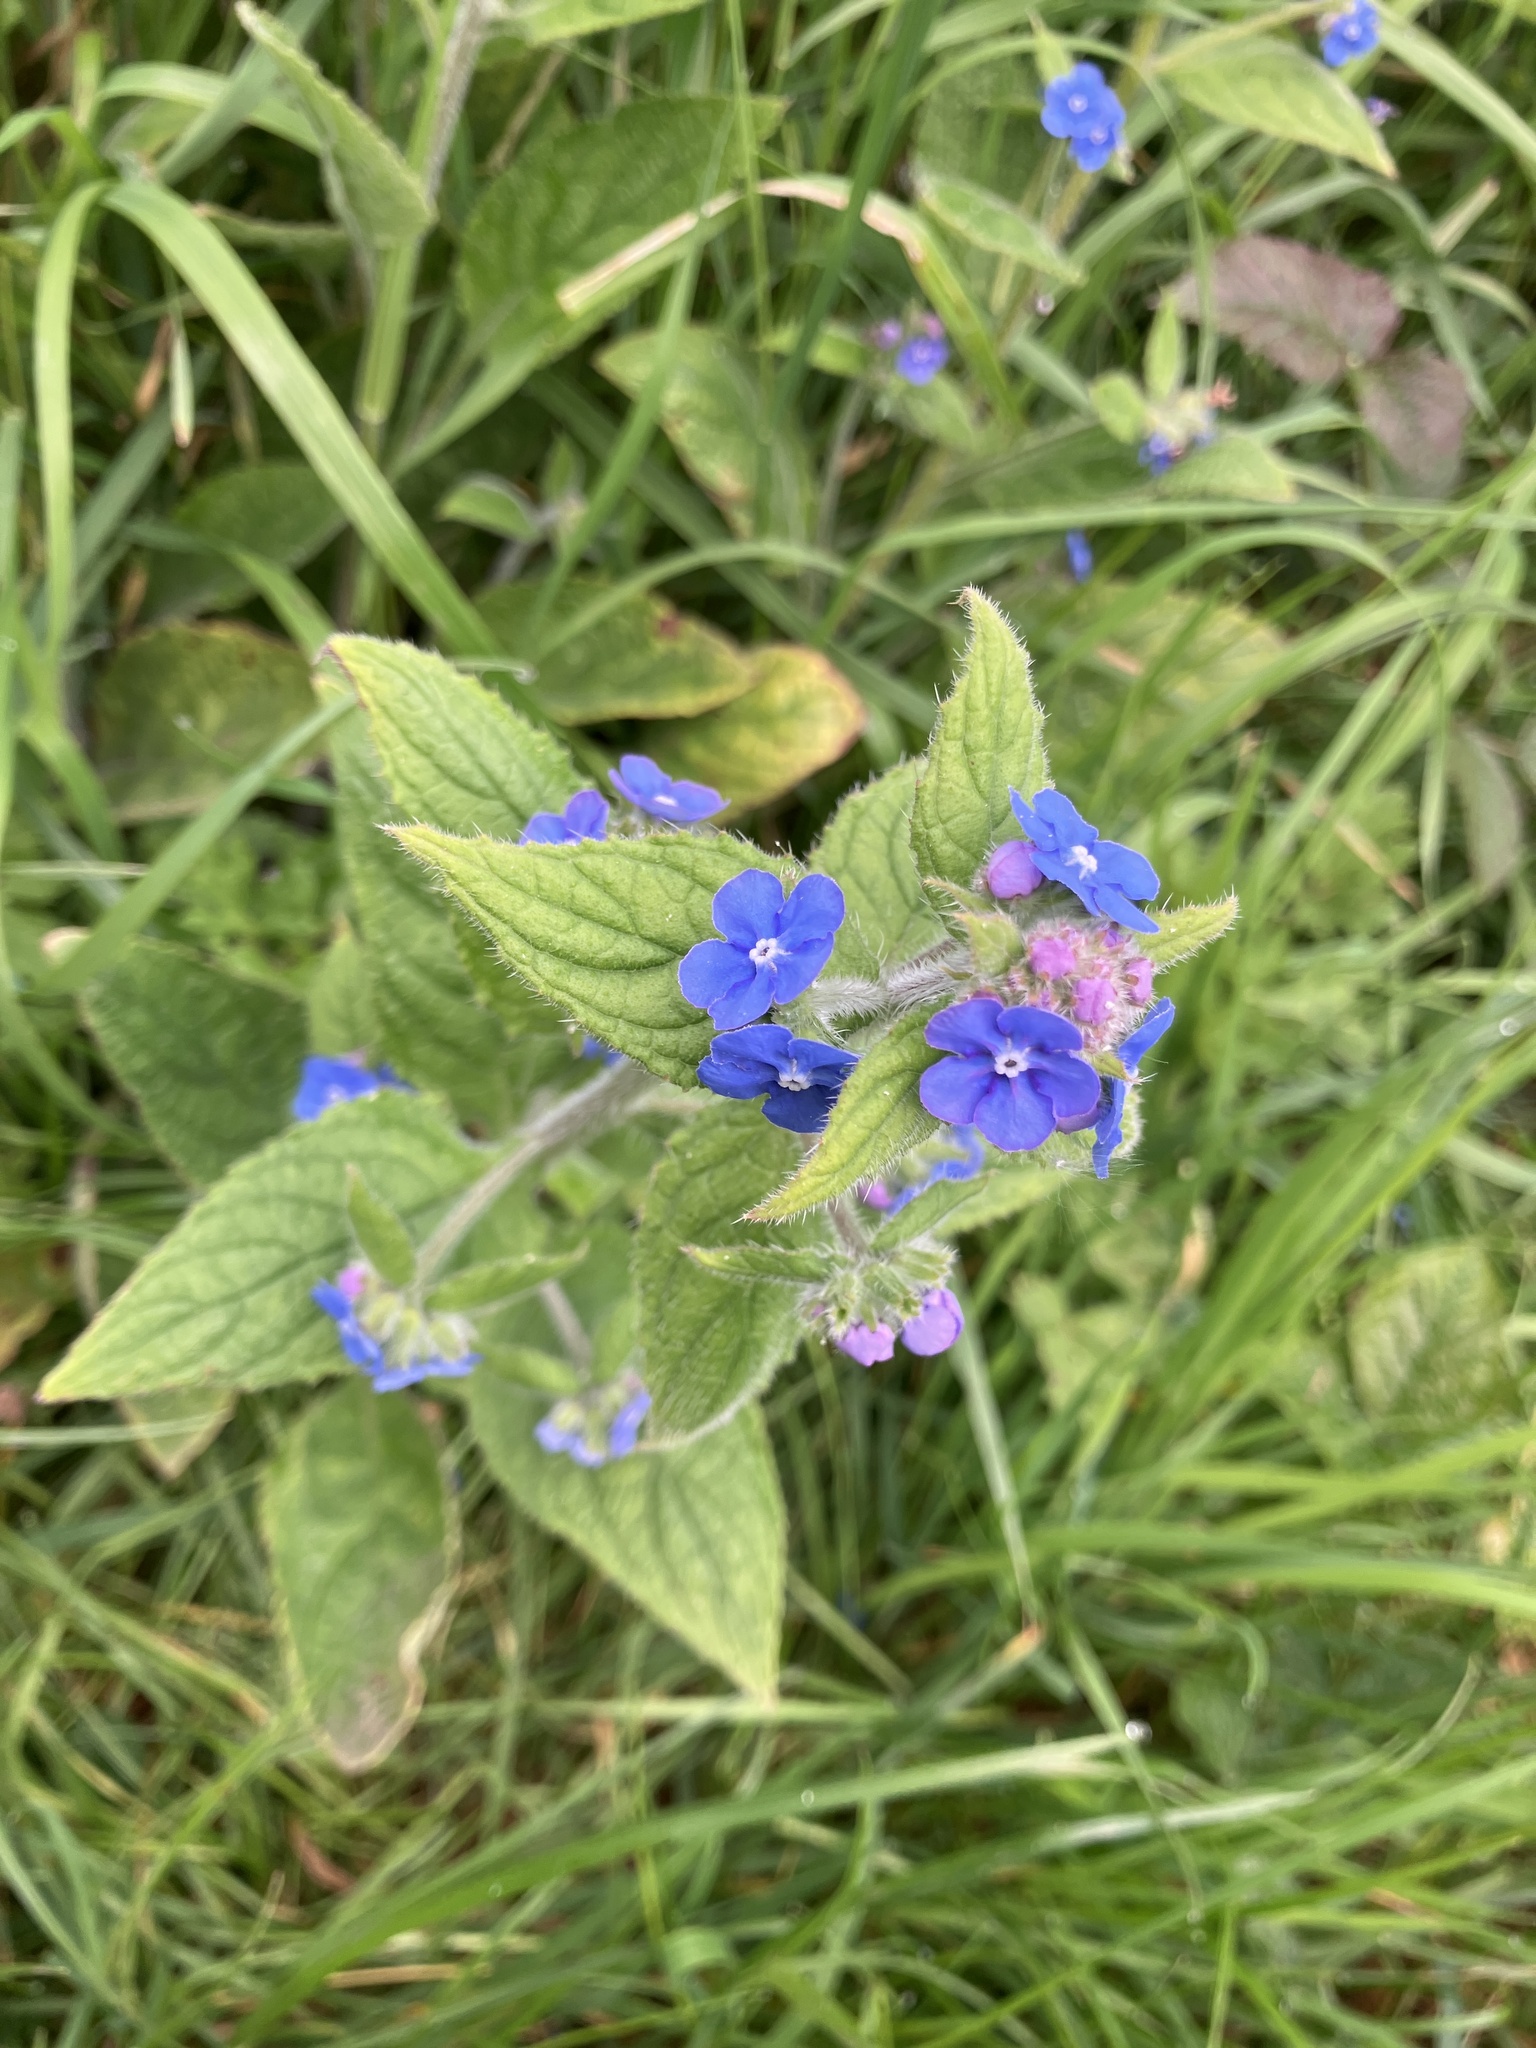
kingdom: Plantae
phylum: Tracheophyta
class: Magnoliopsida
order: Boraginales
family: Boraginaceae
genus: Pentaglottis
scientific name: Pentaglottis sempervirens
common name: Green alkanet
